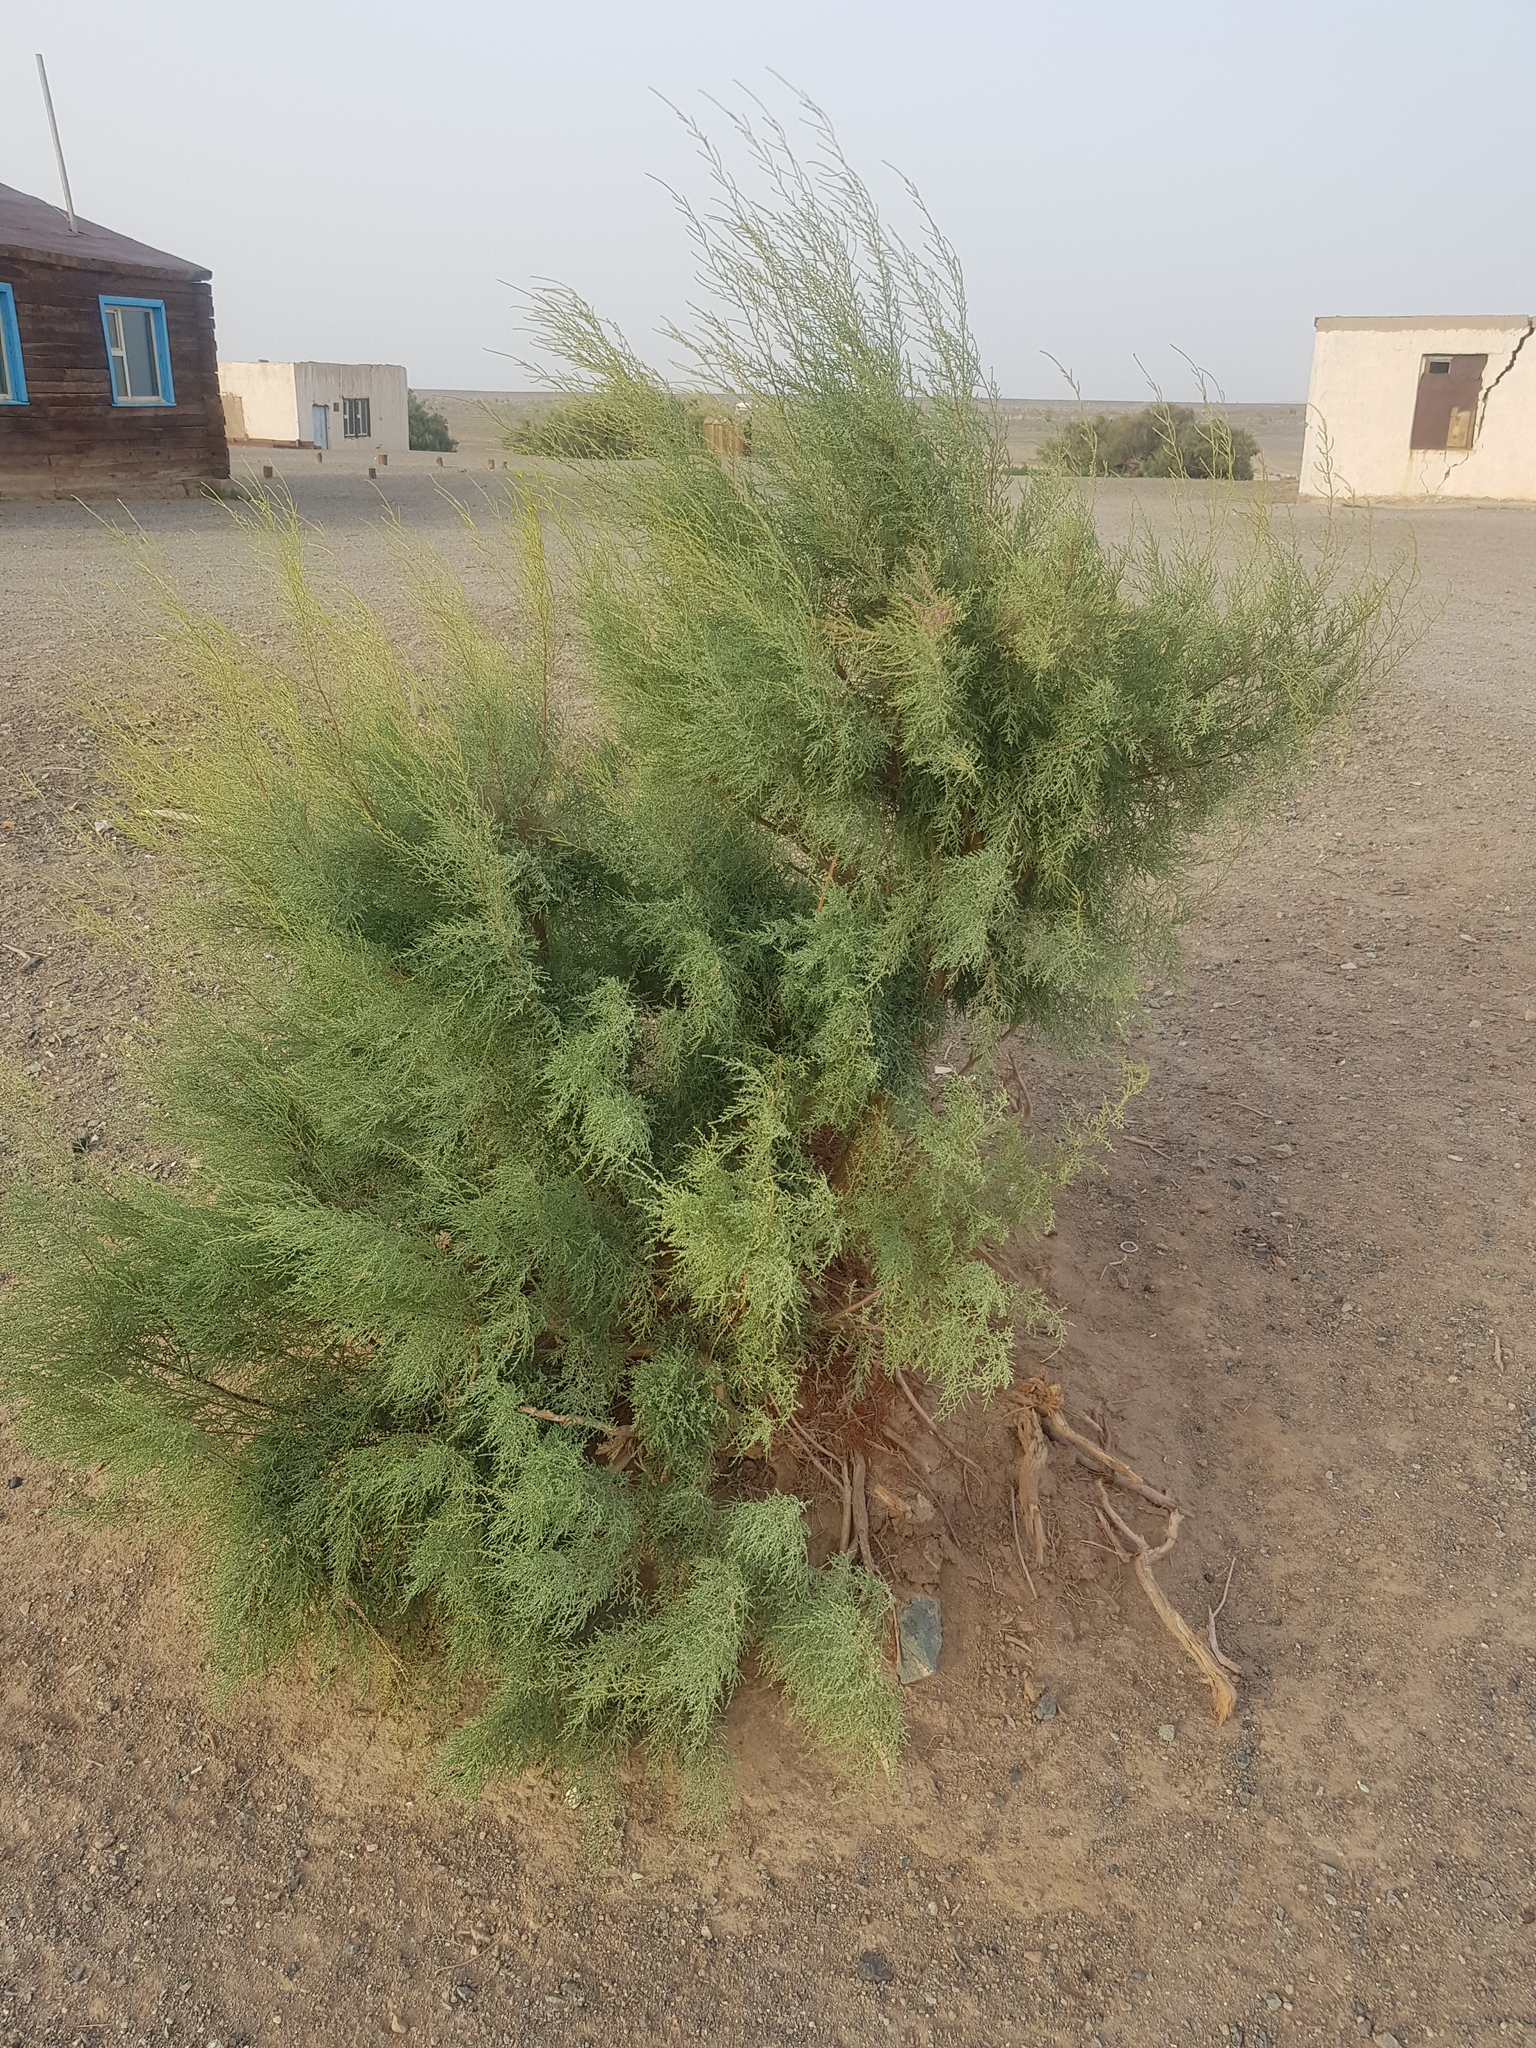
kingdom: Plantae
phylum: Tracheophyta
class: Magnoliopsida
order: Caryophyllales
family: Tamaricaceae
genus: Tamarix
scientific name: Tamarix ramosissima
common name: Pink tamarisk
